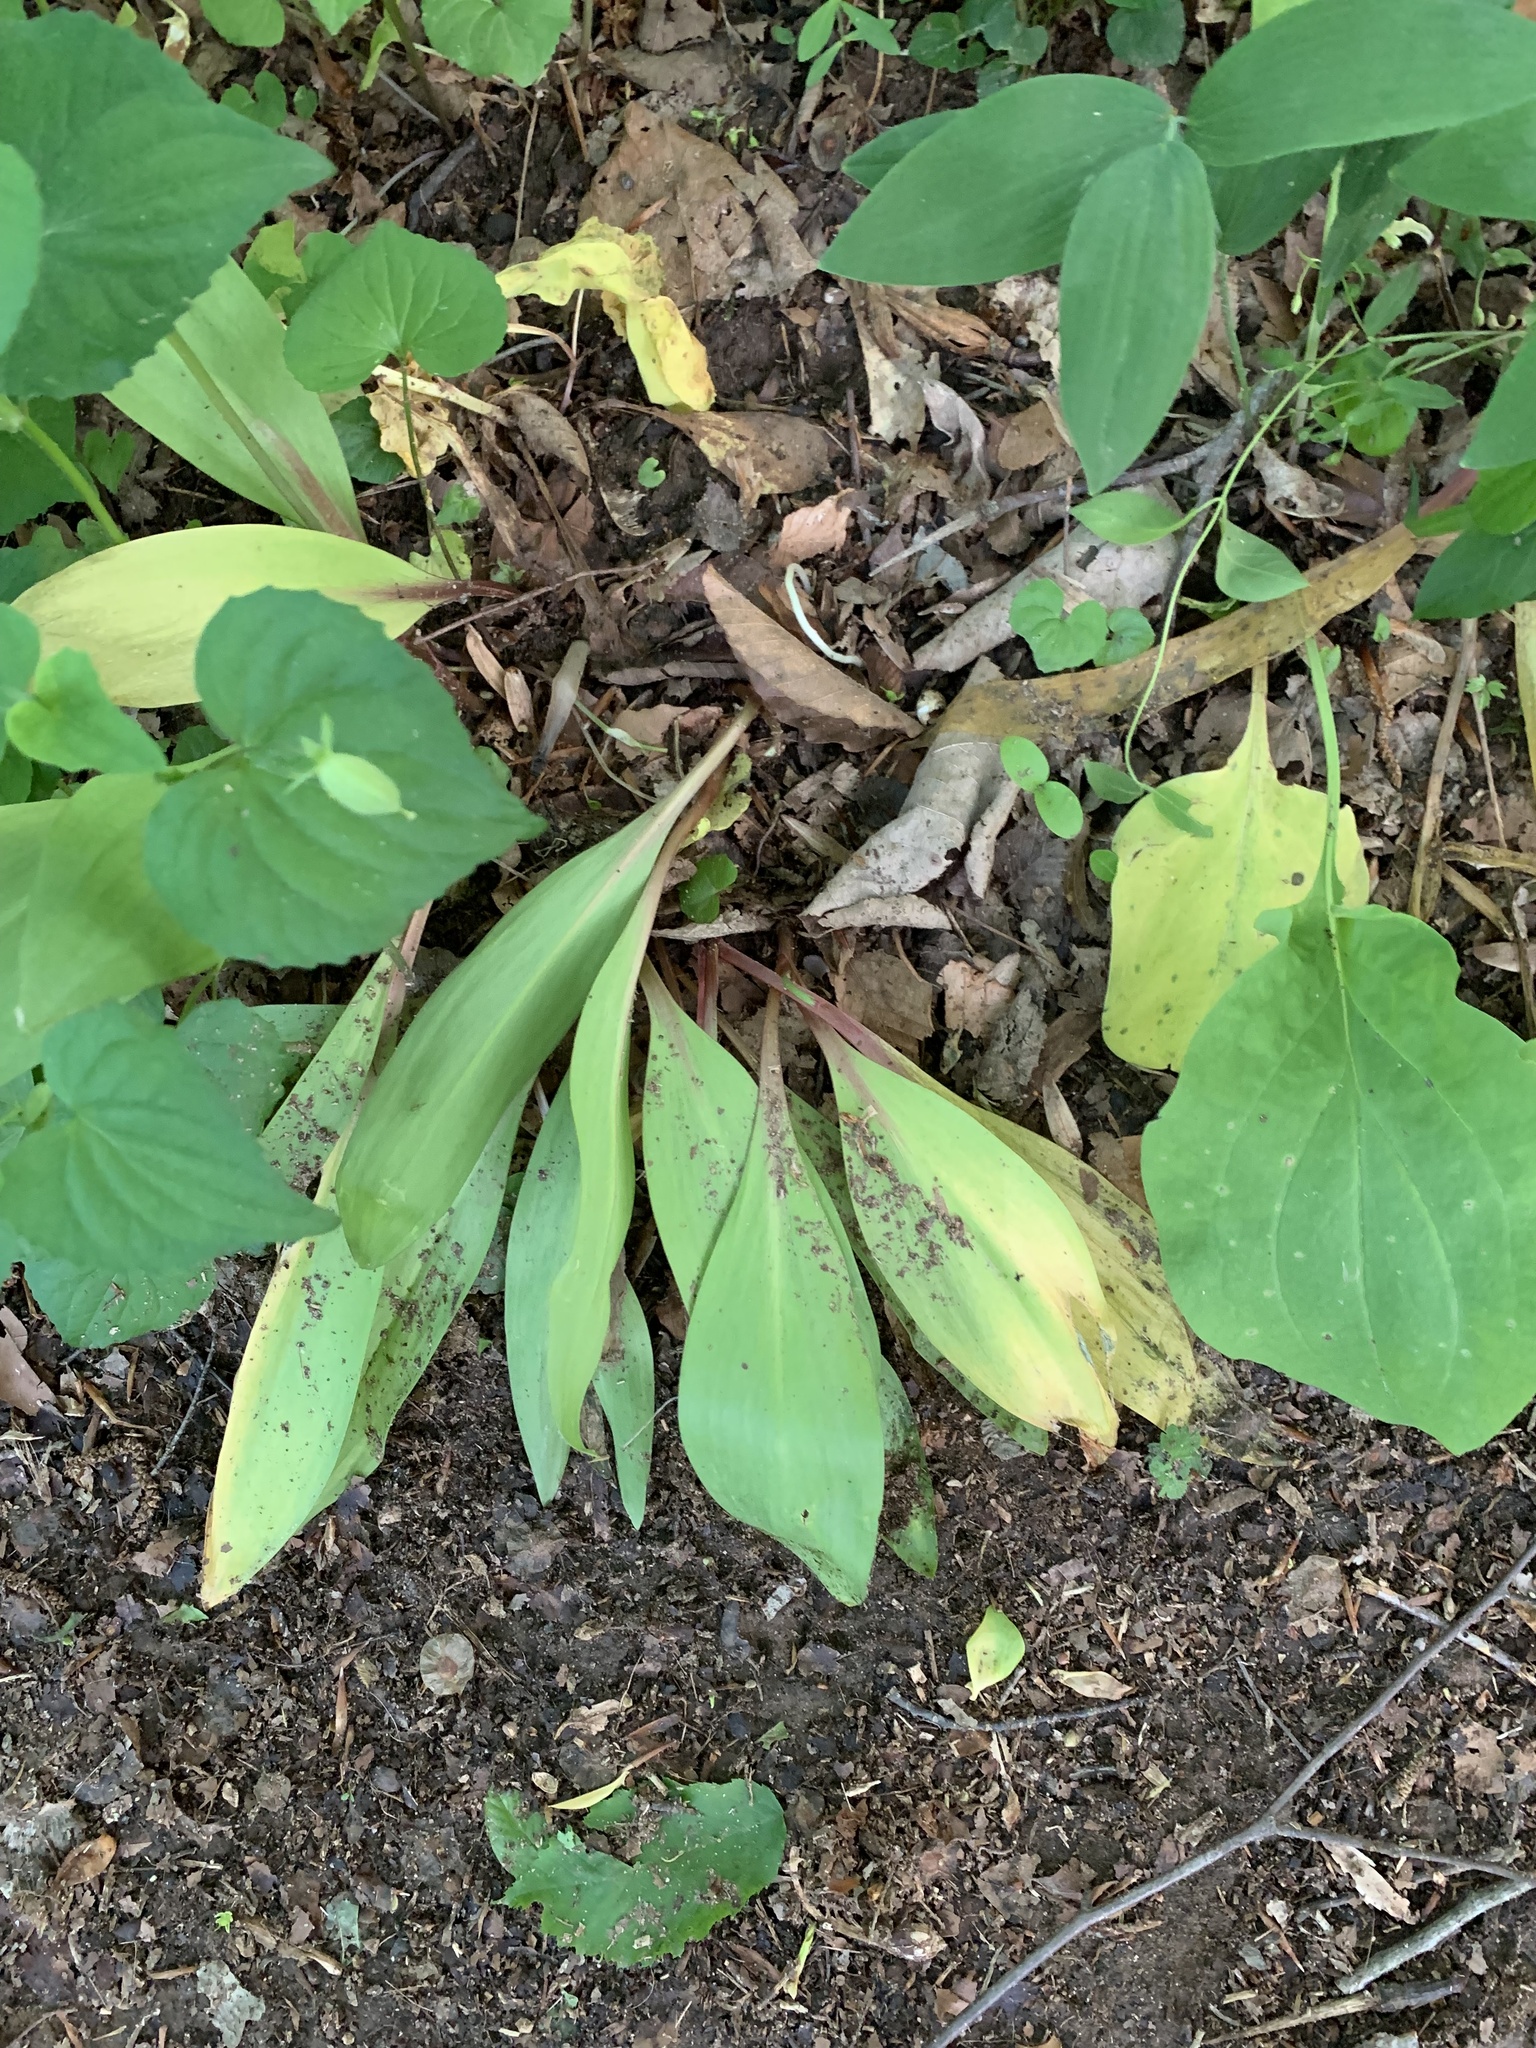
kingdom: Plantae
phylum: Tracheophyta
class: Liliopsida
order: Asparagales
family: Amaryllidaceae
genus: Allium
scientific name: Allium tricoccum
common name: Ramp
